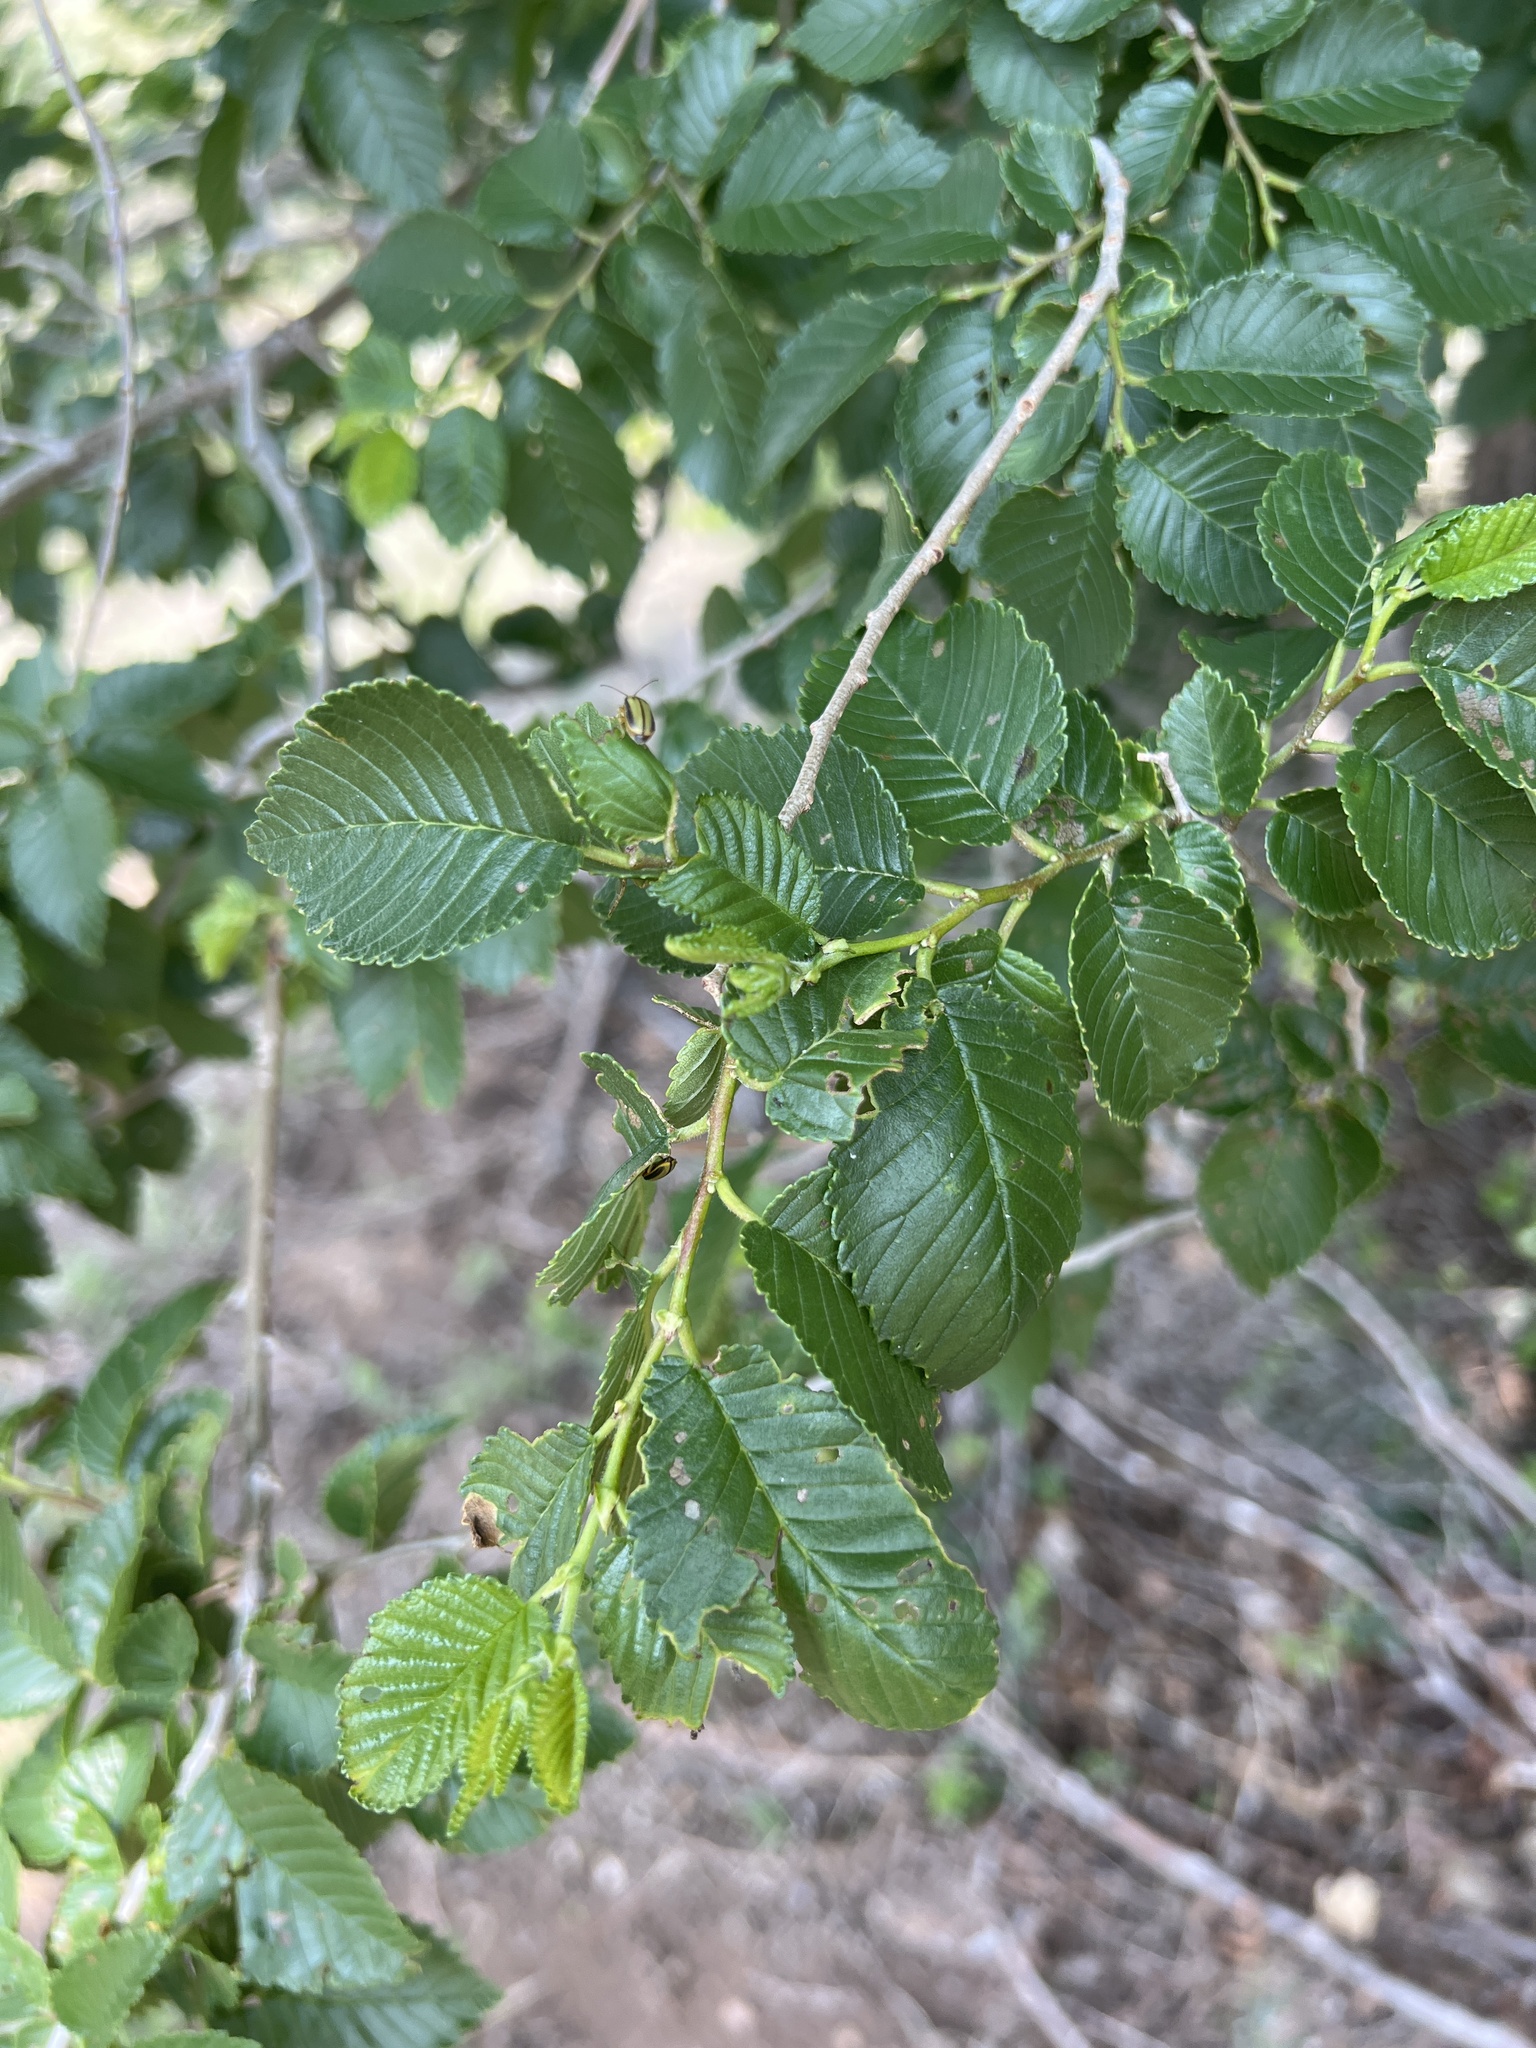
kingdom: Plantae
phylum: Tracheophyta
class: Magnoliopsida
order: Rosales
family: Ulmaceae
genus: Ulmus
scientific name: Ulmus pumila
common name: Siberian elm
